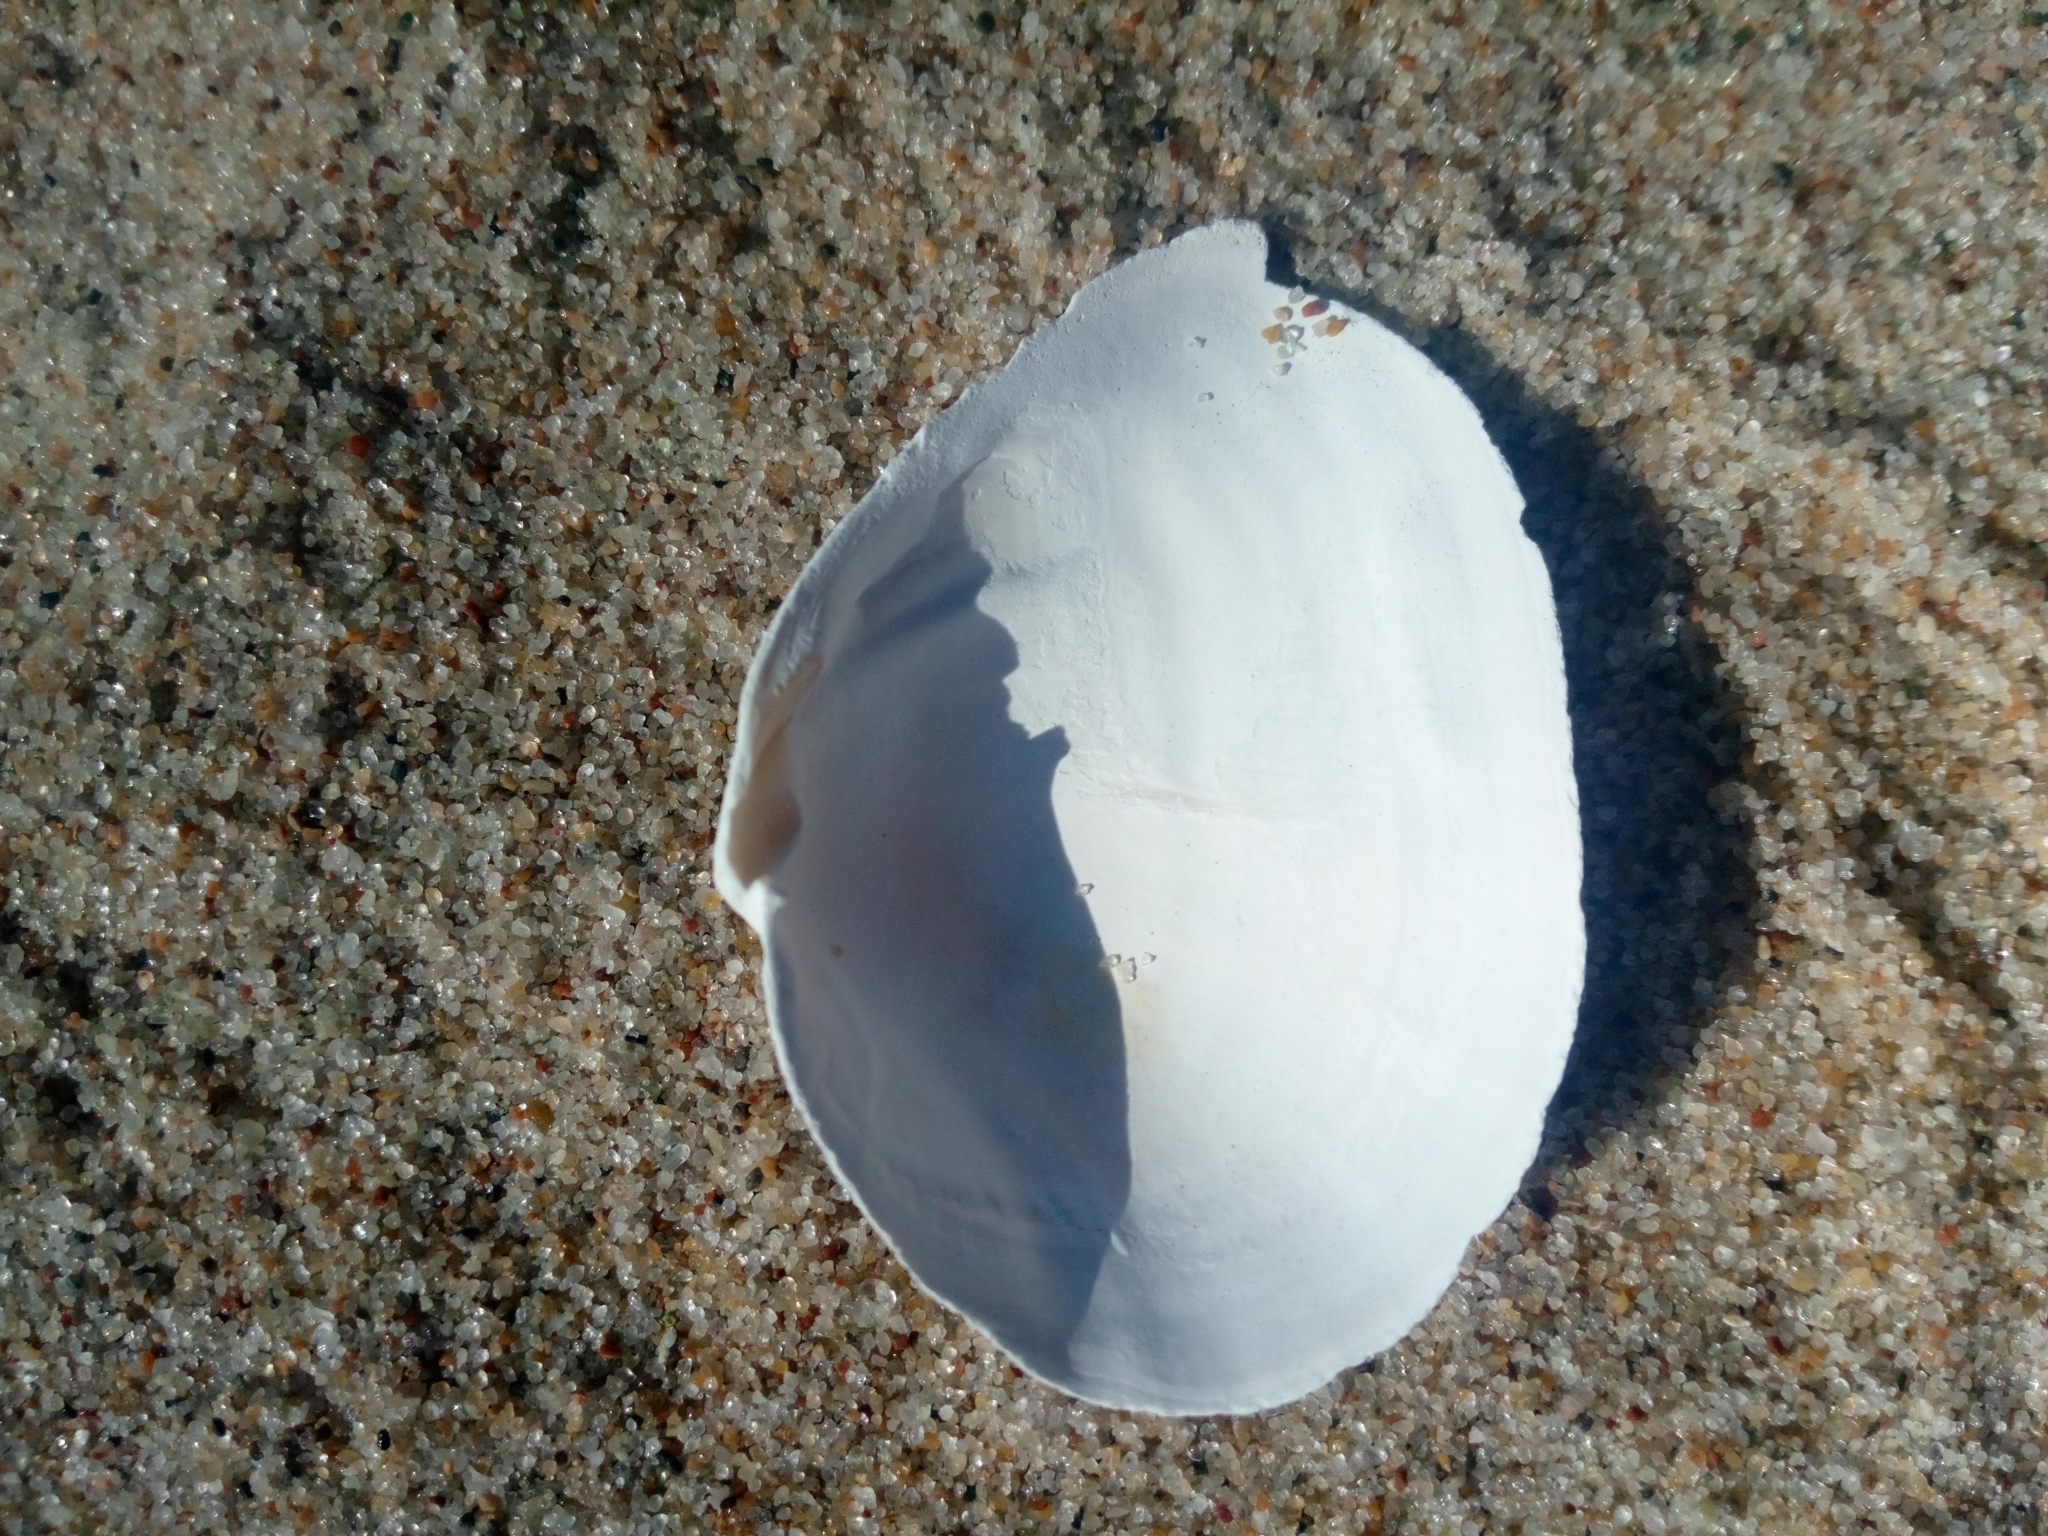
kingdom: Animalia
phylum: Mollusca
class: Bivalvia
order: Myida
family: Myidae
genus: Mya
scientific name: Mya arenaria
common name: Soft-shelled clam
